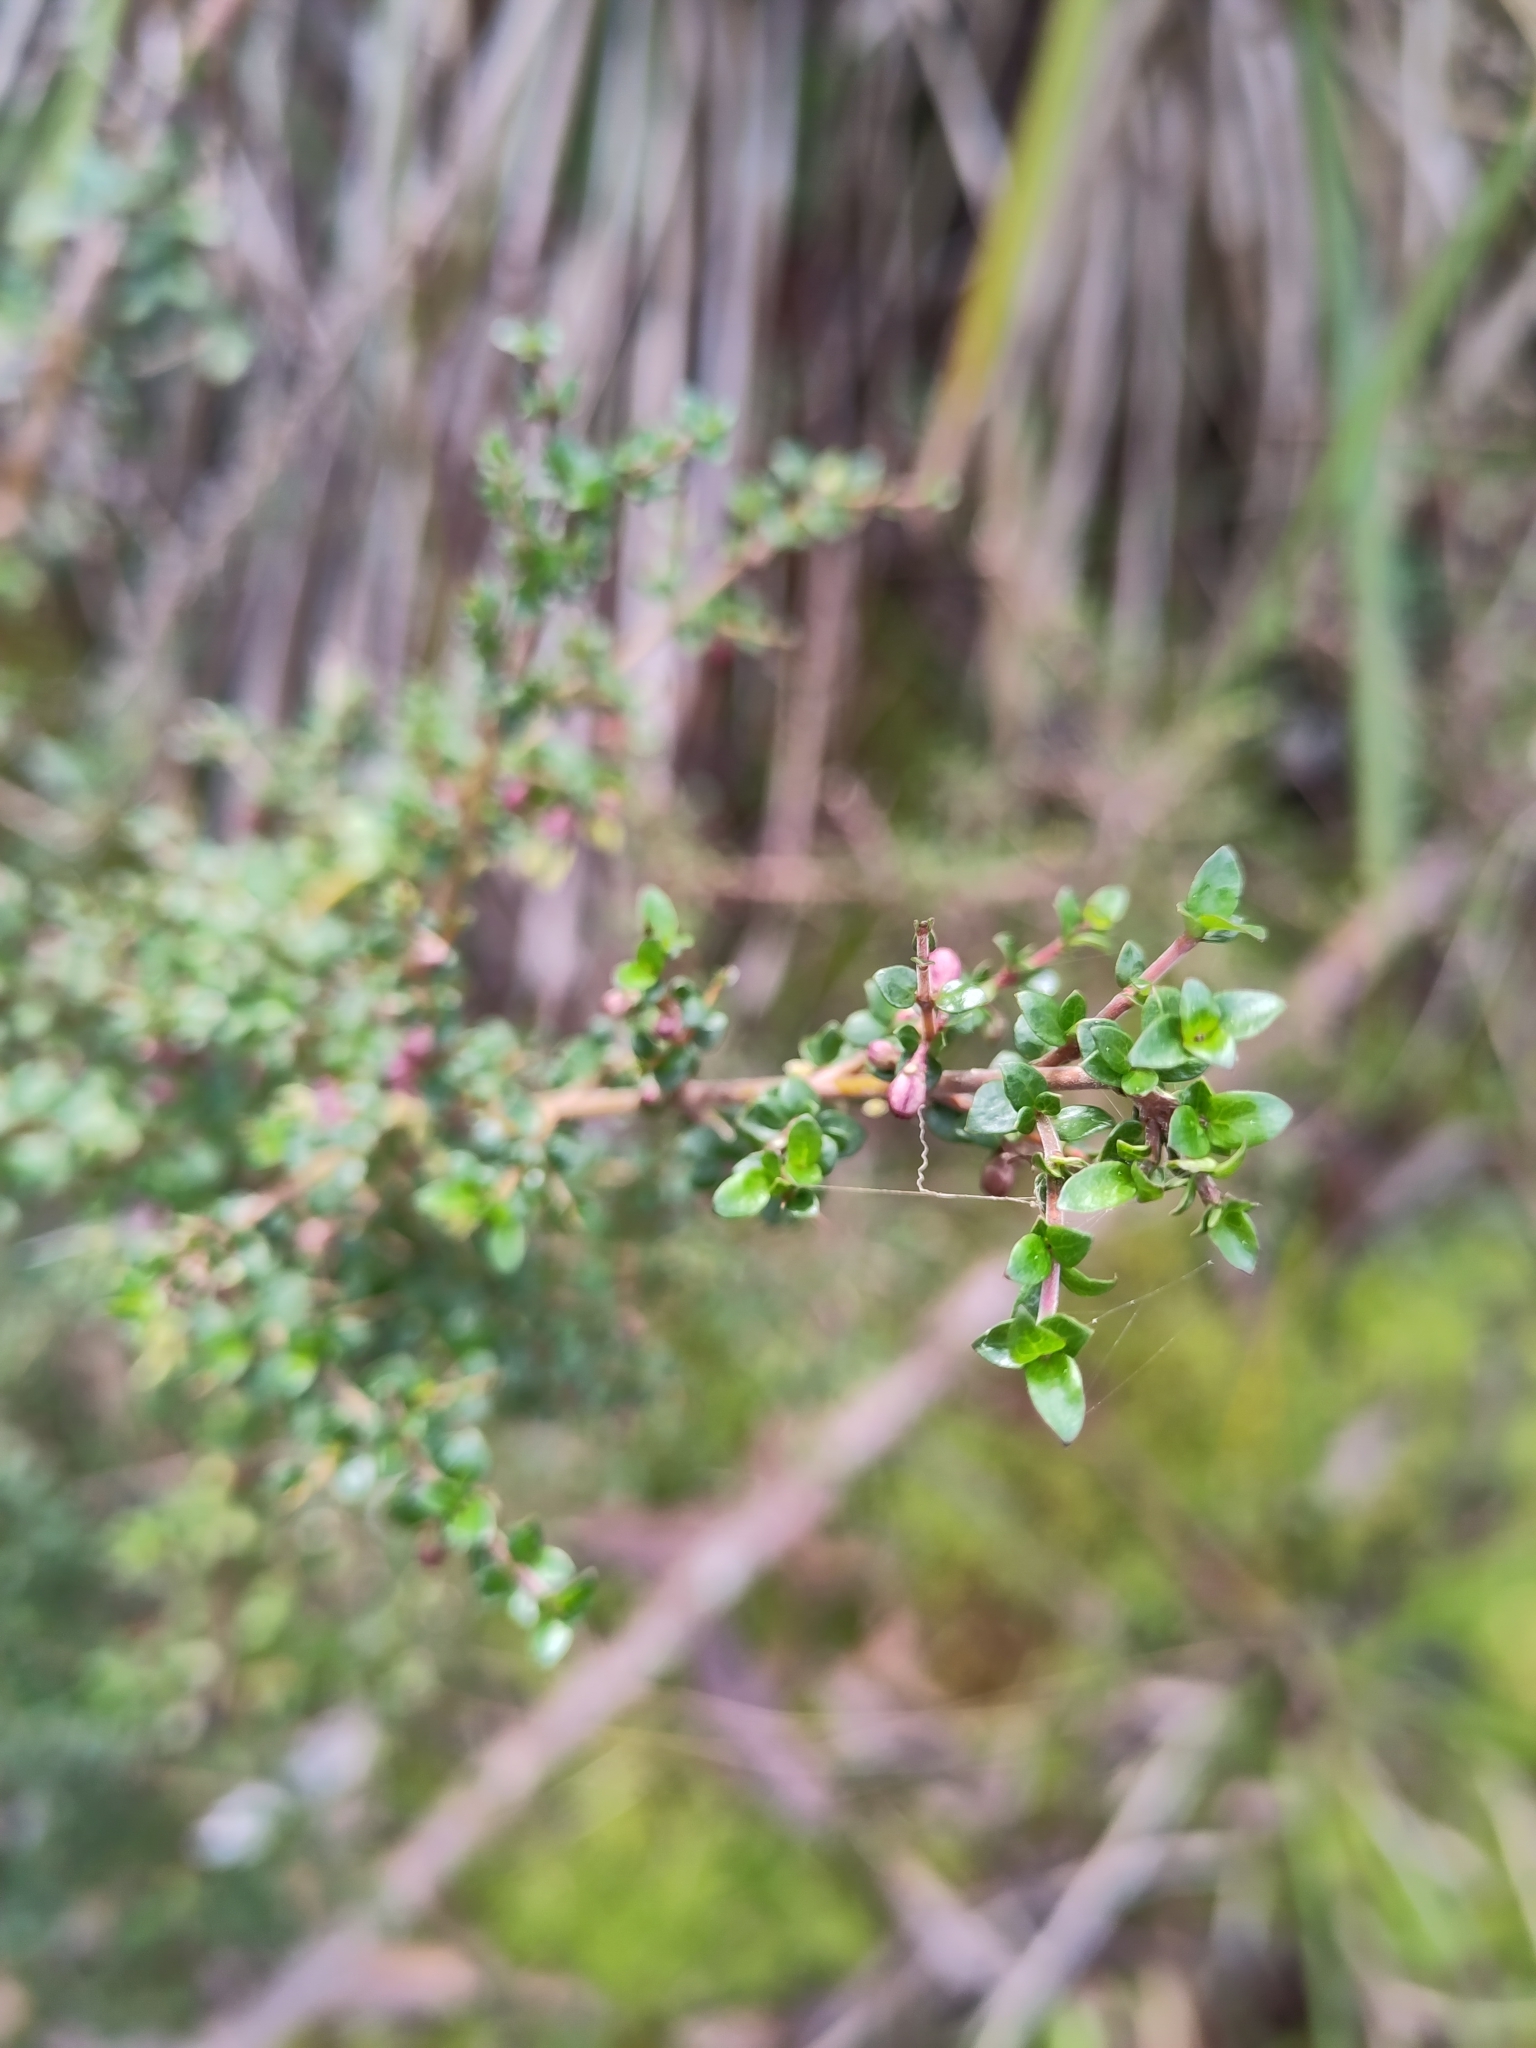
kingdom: Plantae
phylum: Tracheophyta
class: Magnoliopsida
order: Gentianales
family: Rubiaceae
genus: Coprosma
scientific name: Coprosma quadrifida
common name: Prickly currantbush
